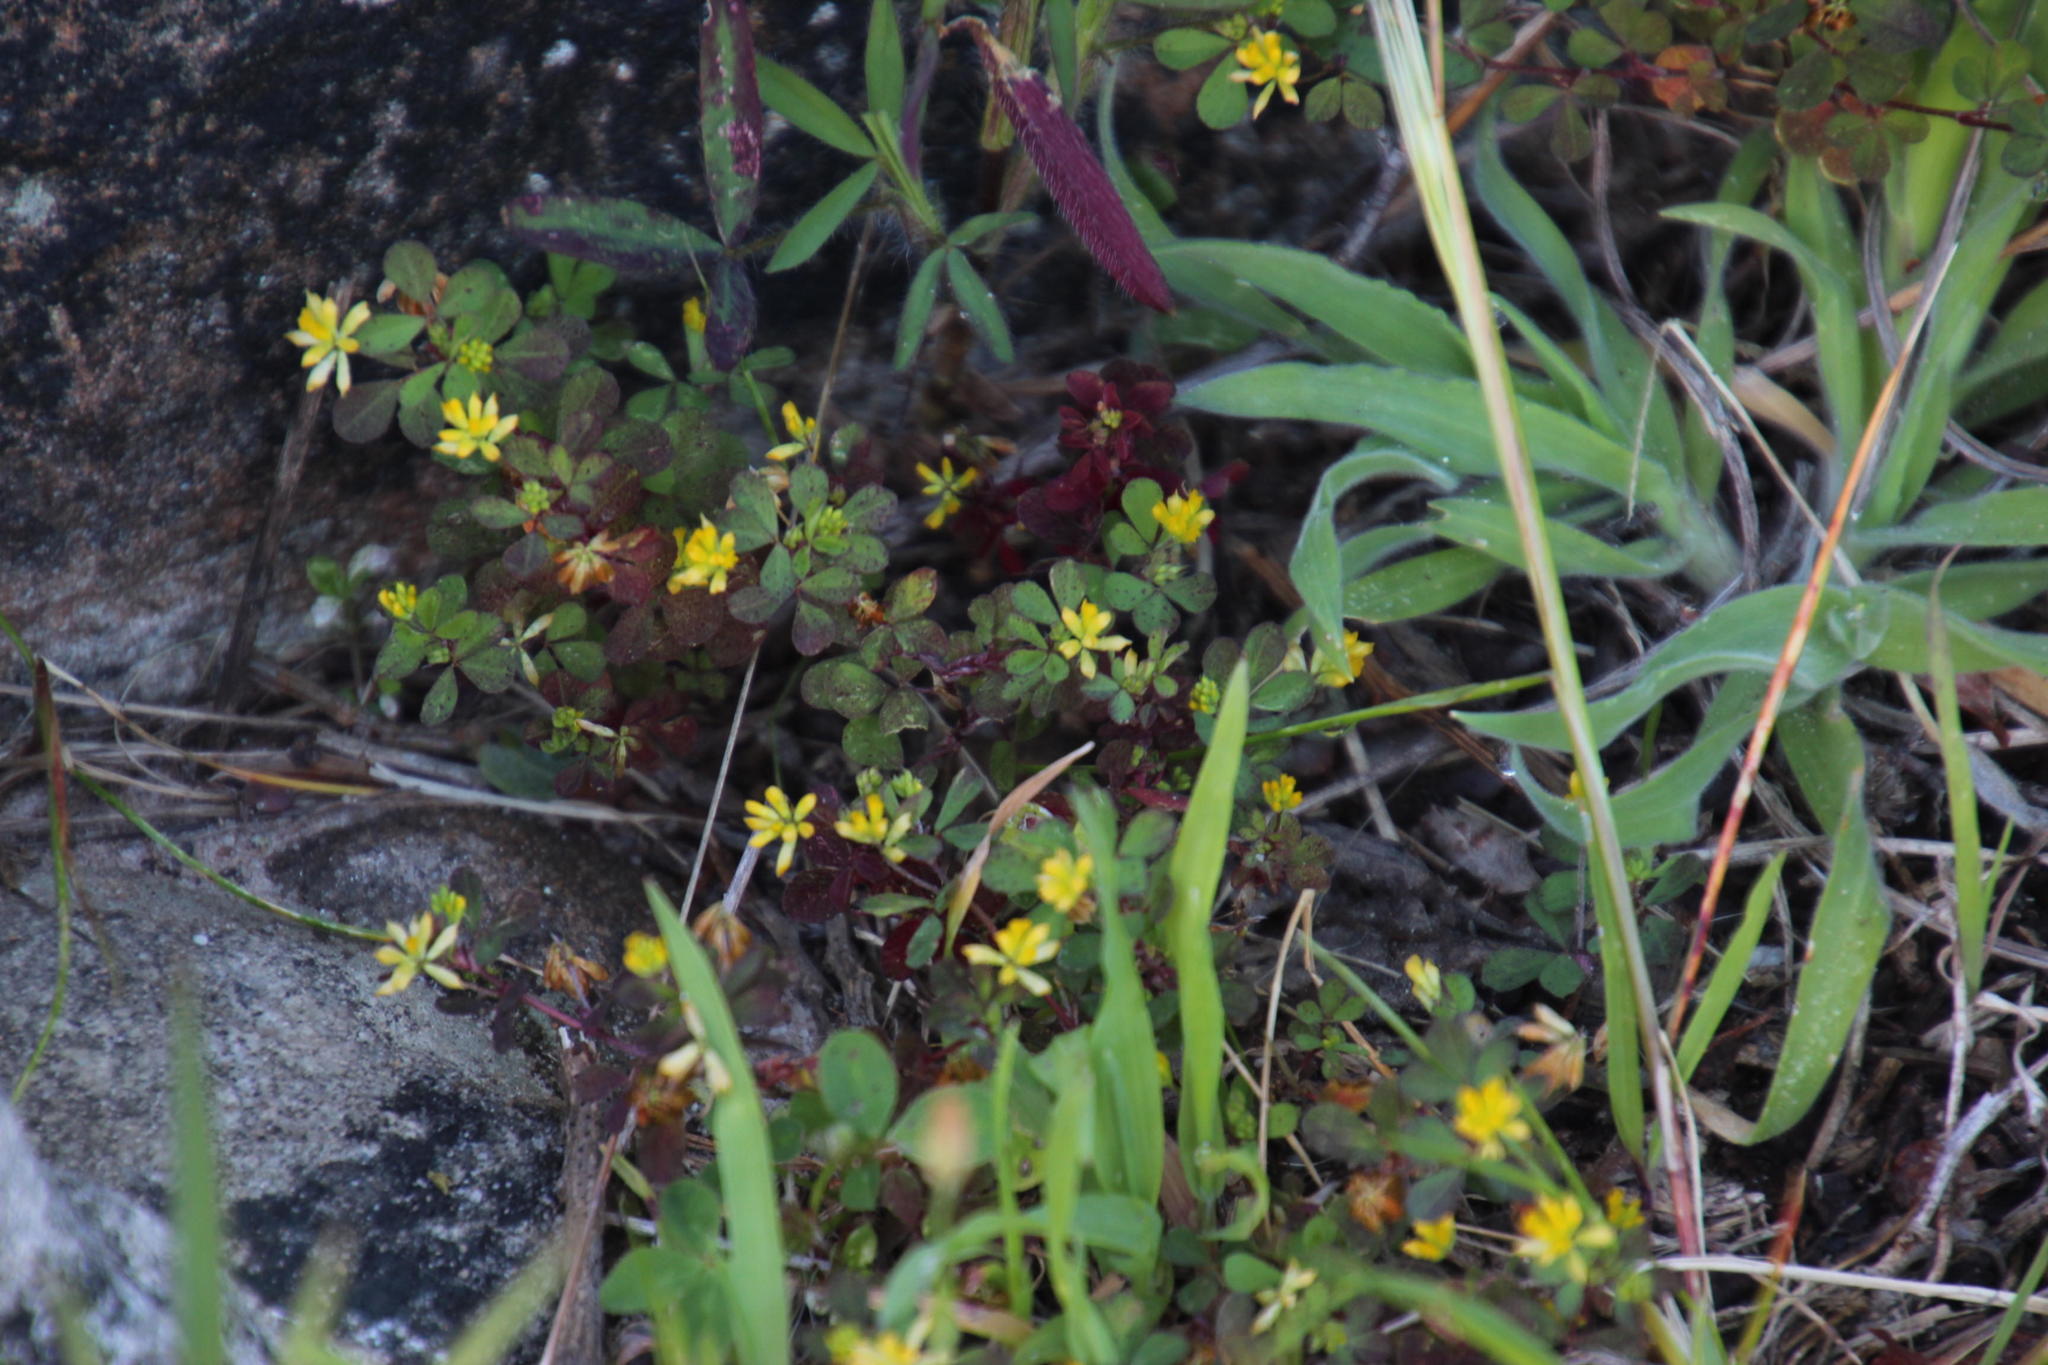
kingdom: Plantae
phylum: Tracheophyta
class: Magnoliopsida
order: Fabales
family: Fabaceae
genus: Trifolium
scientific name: Trifolium dubium
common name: Suckling clover
